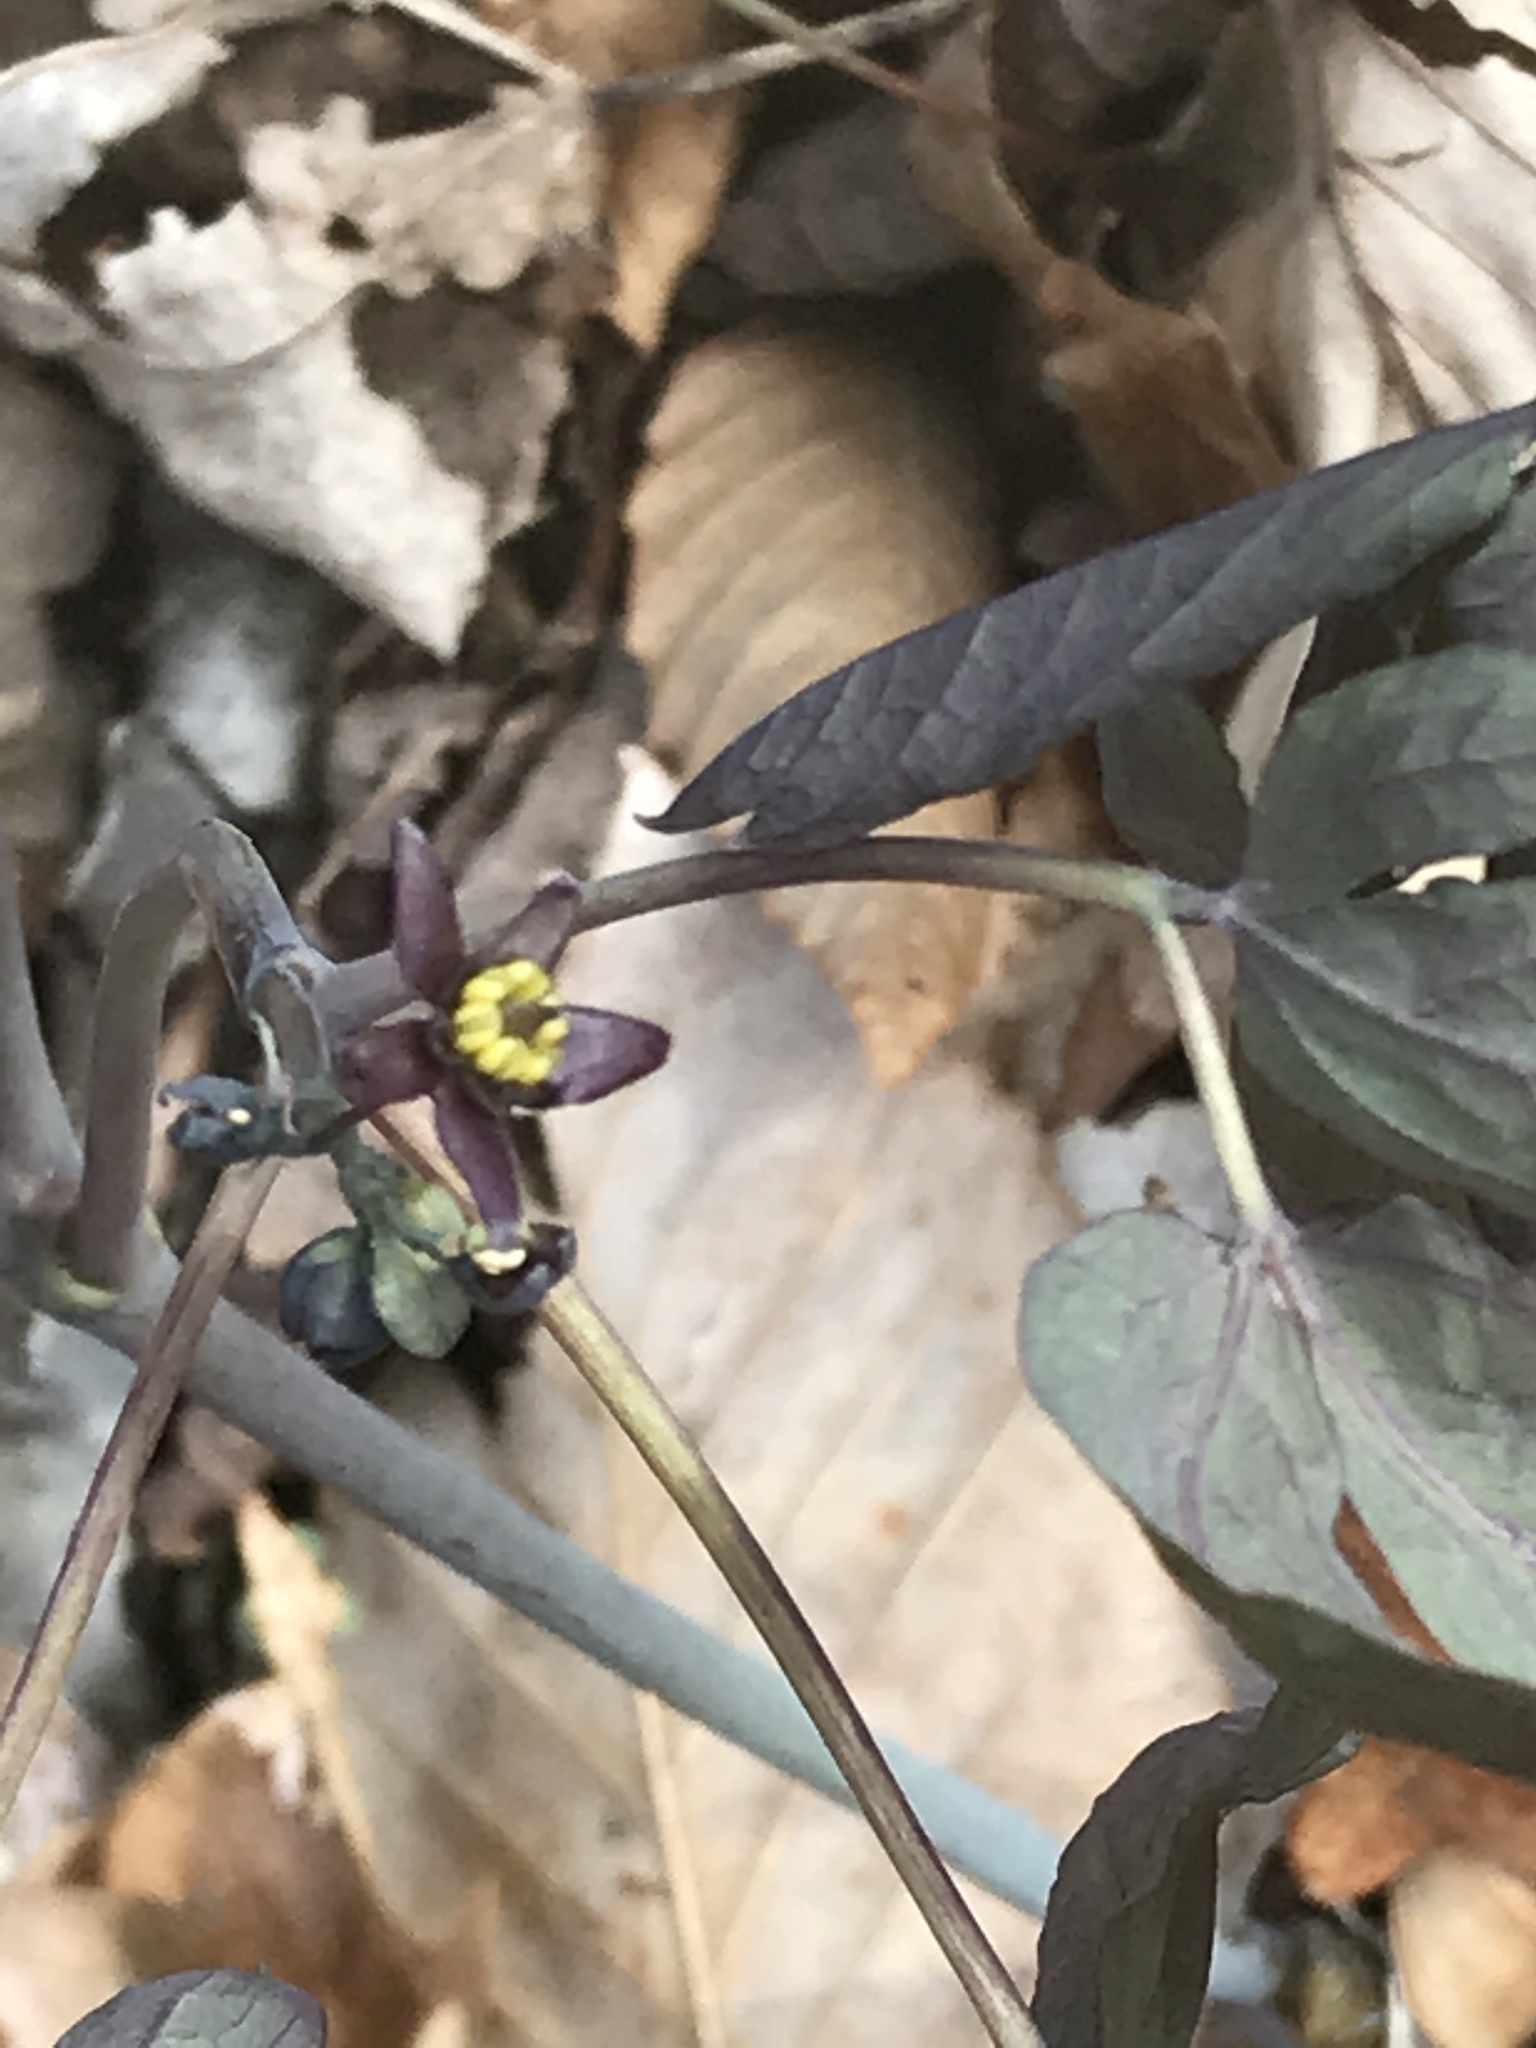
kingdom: Plantae
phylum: Tracheophyta
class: Magnoliopsida
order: Ranunculales
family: Berberidaceae
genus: Caulophyllum
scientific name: Caulophyllum giganteum
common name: Blue cohosh
